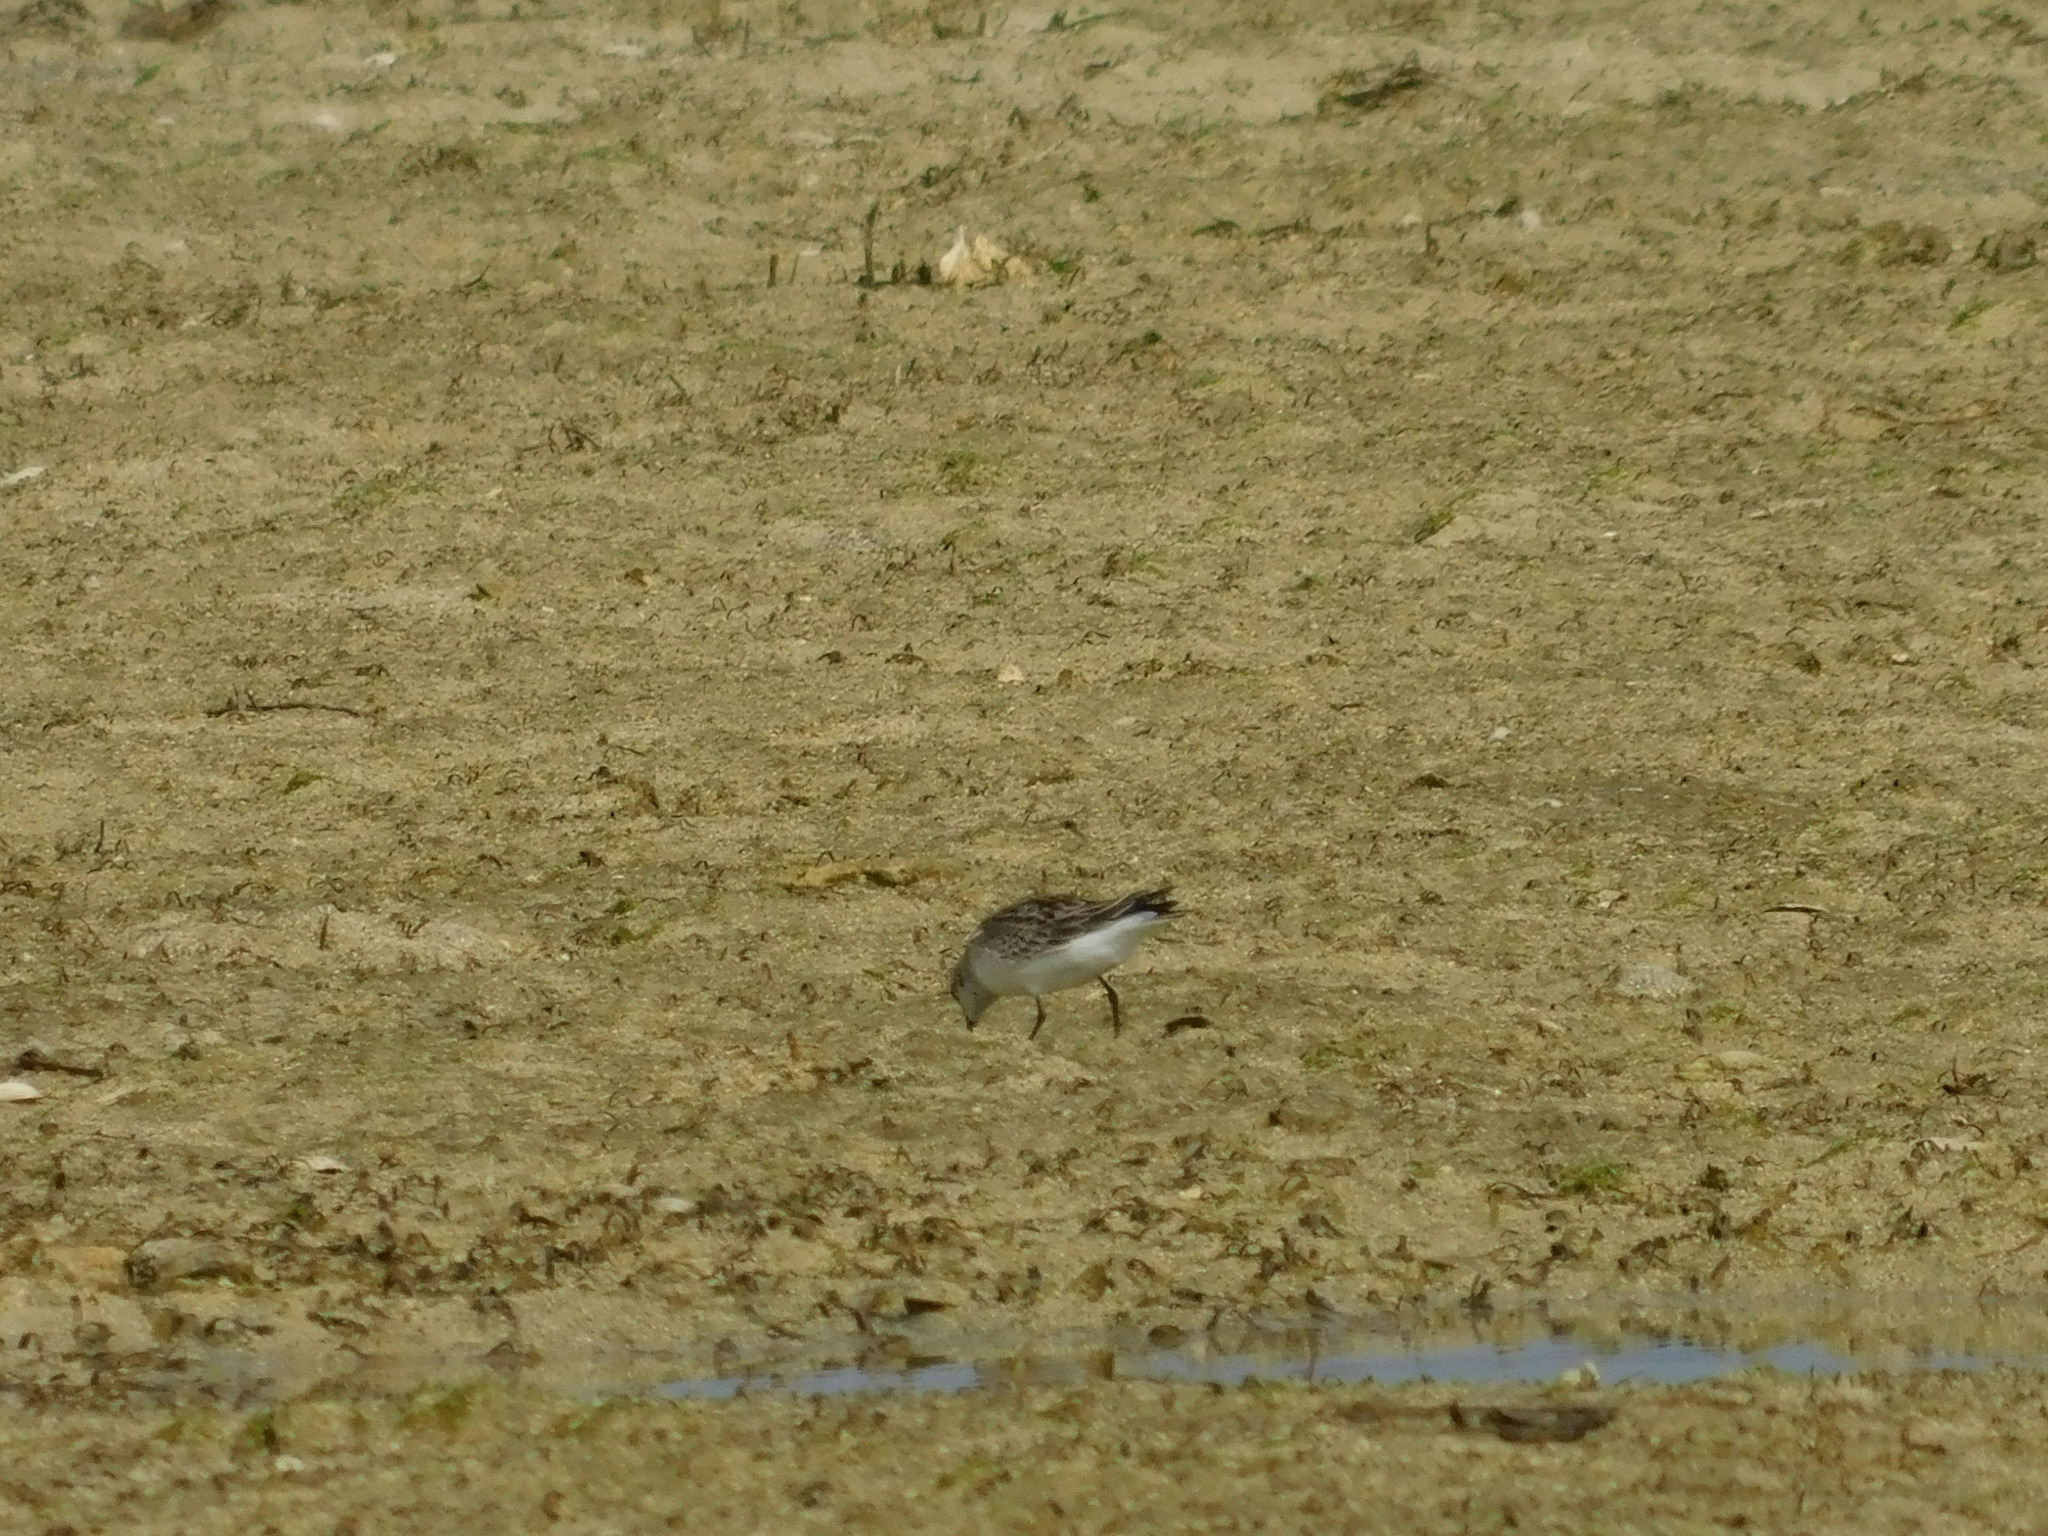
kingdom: Animalia
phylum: Chordata
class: Aves
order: Charadriiformes
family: Scolopacidae
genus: Calidris
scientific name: Calidris ruficollis
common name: Red-necked stint
